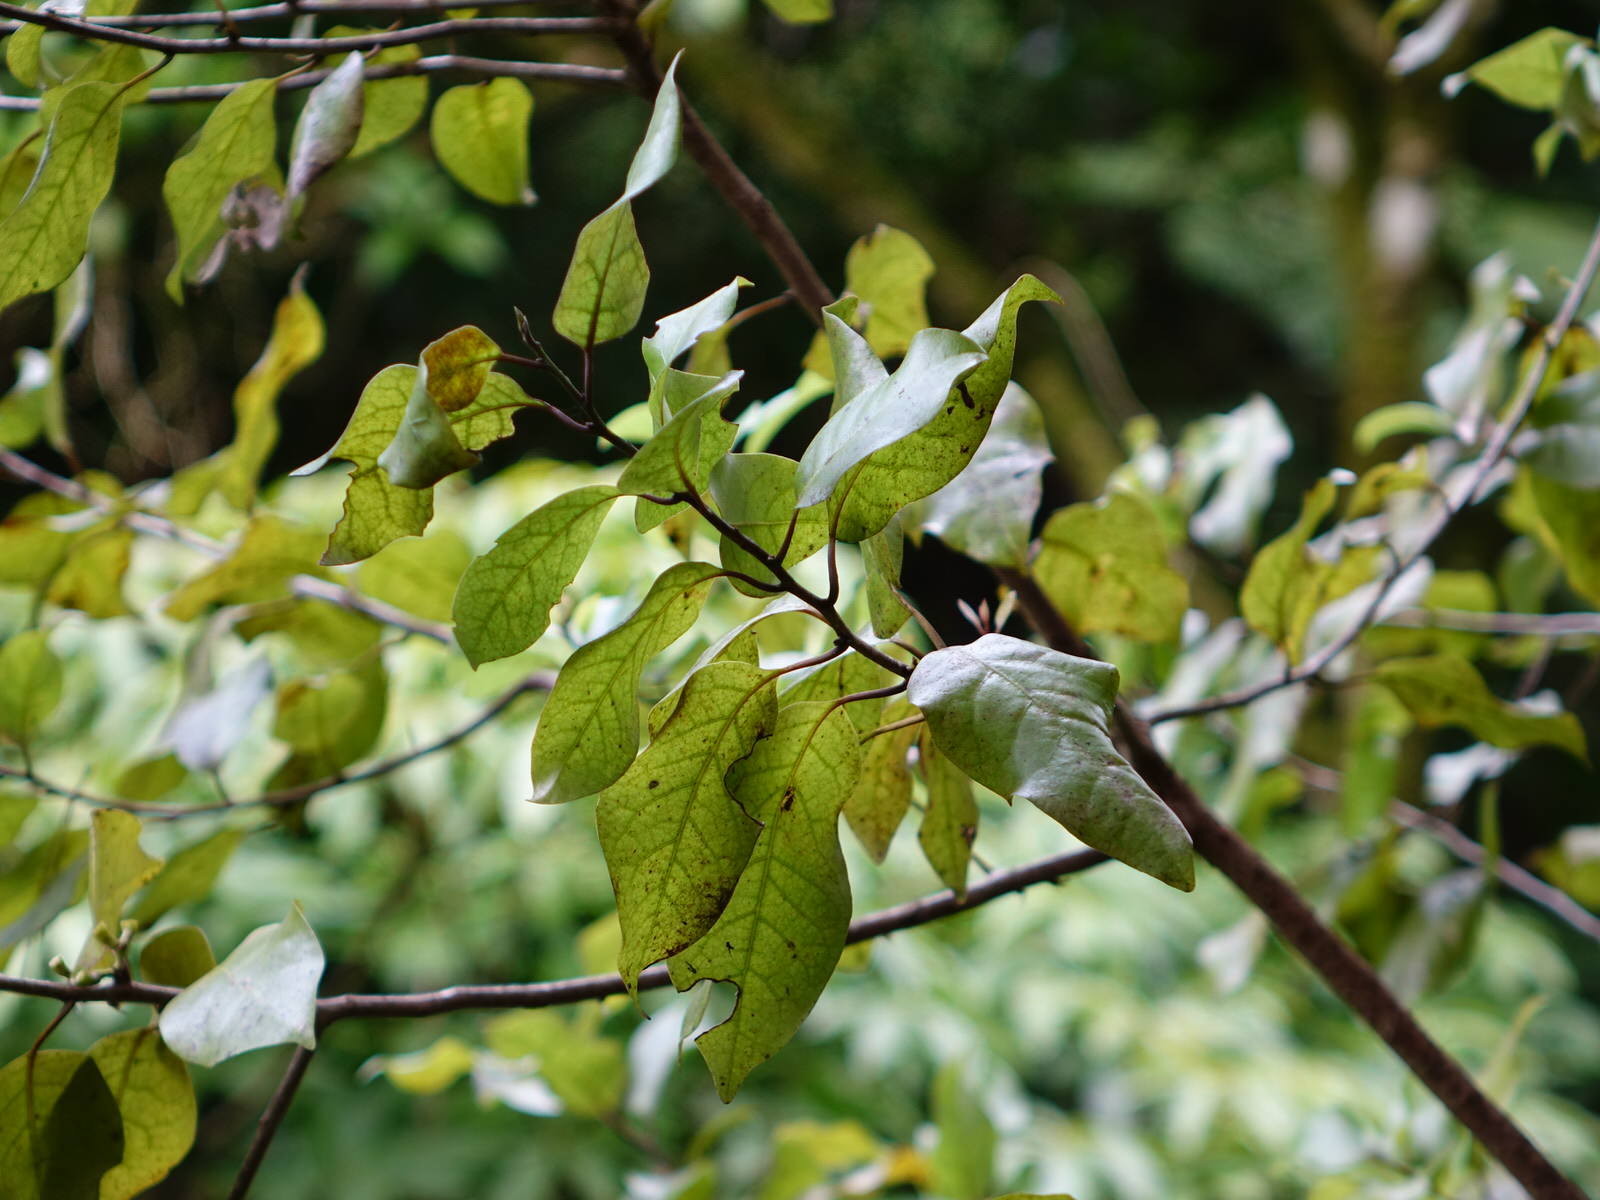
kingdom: Plantae
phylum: Tracheophyta
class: Magnoliopsida
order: Laurales
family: Lauraceae
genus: Litsea
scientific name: Litsea calicaris
